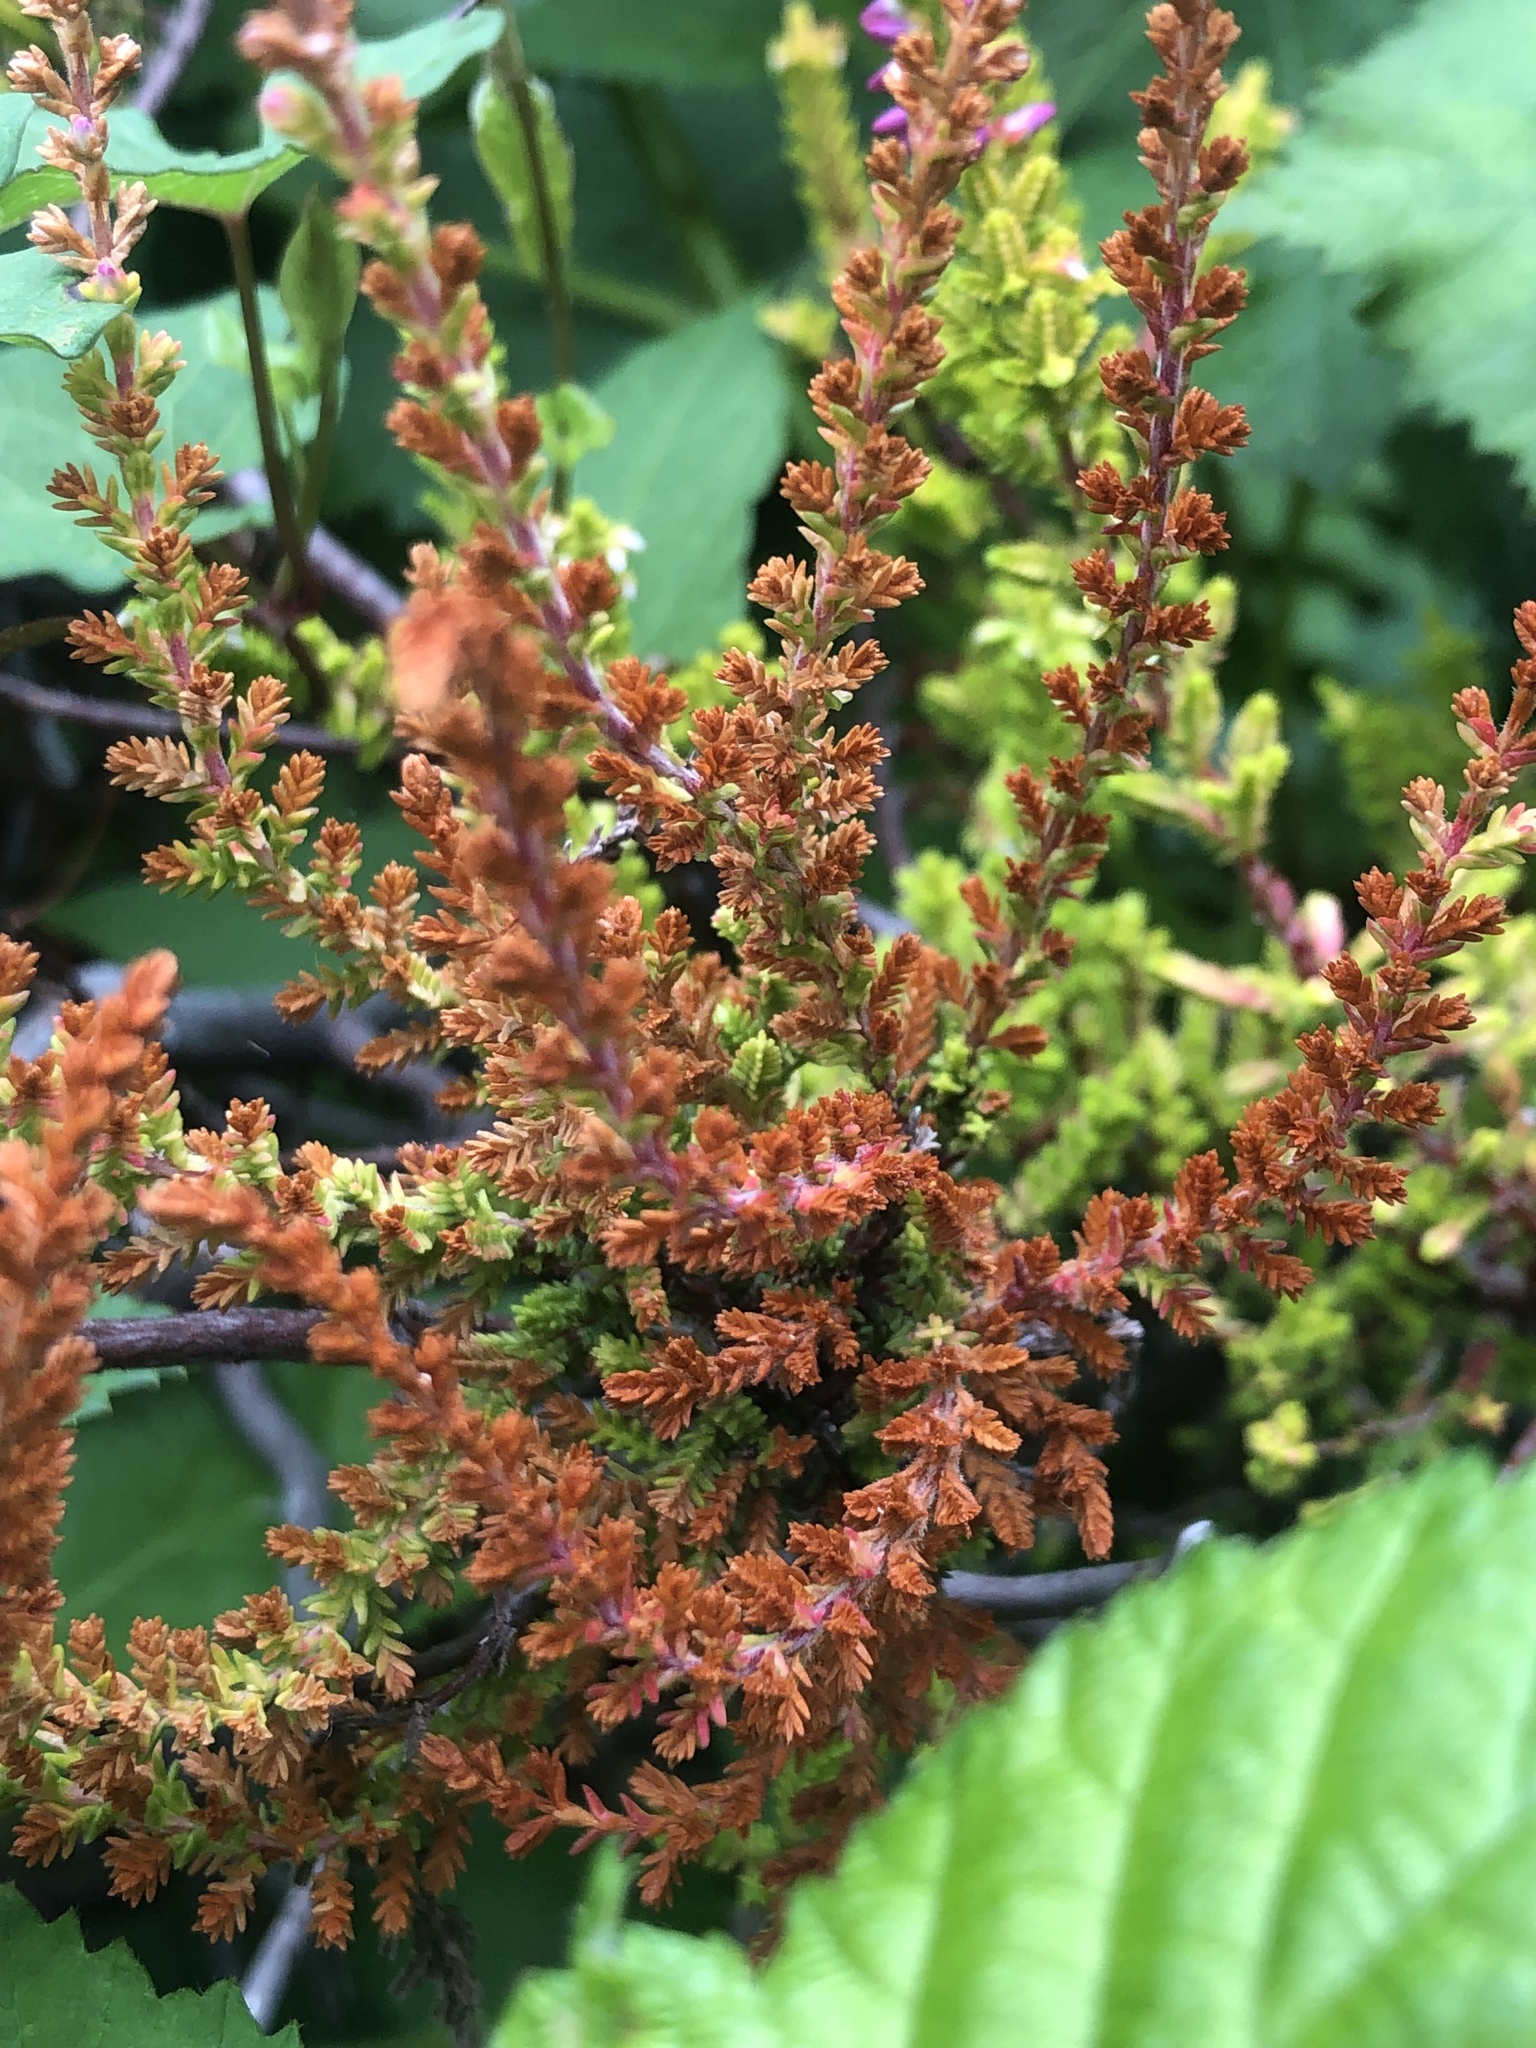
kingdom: Plantae
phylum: Tracheophyta
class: Magnoliopsida
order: Ericales
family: Ericaceae
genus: Calluna
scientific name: Calluna vulgaris
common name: Heather
